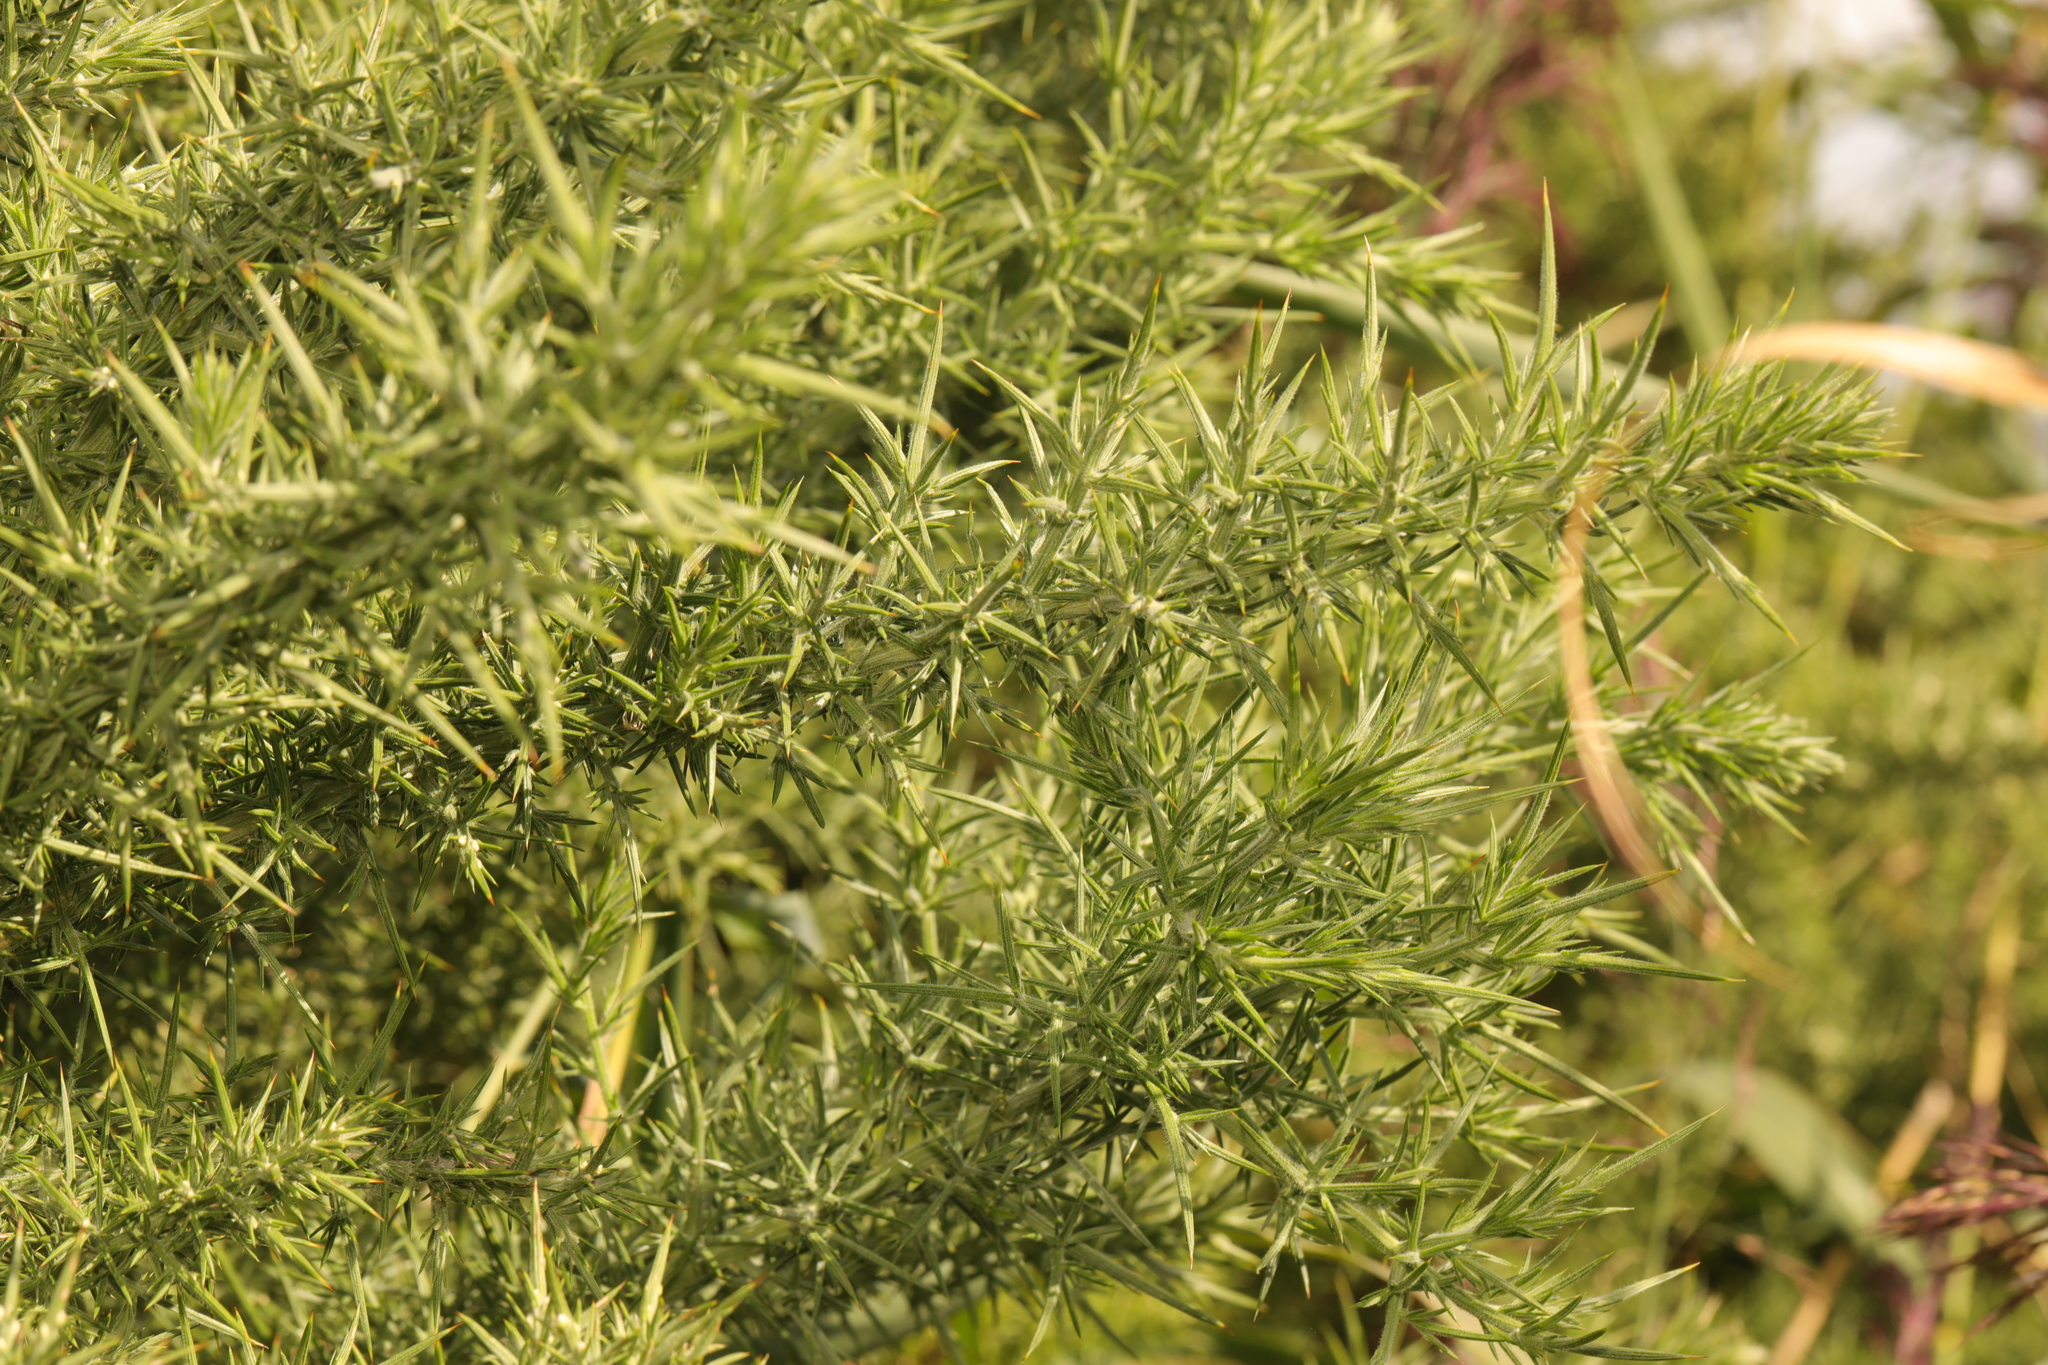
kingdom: Plantae
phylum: Tracheophyta
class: Magnoliopsida
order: Fabales
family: Fabaceae
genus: Ulex
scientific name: Ulex europaeus
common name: Common gorse
